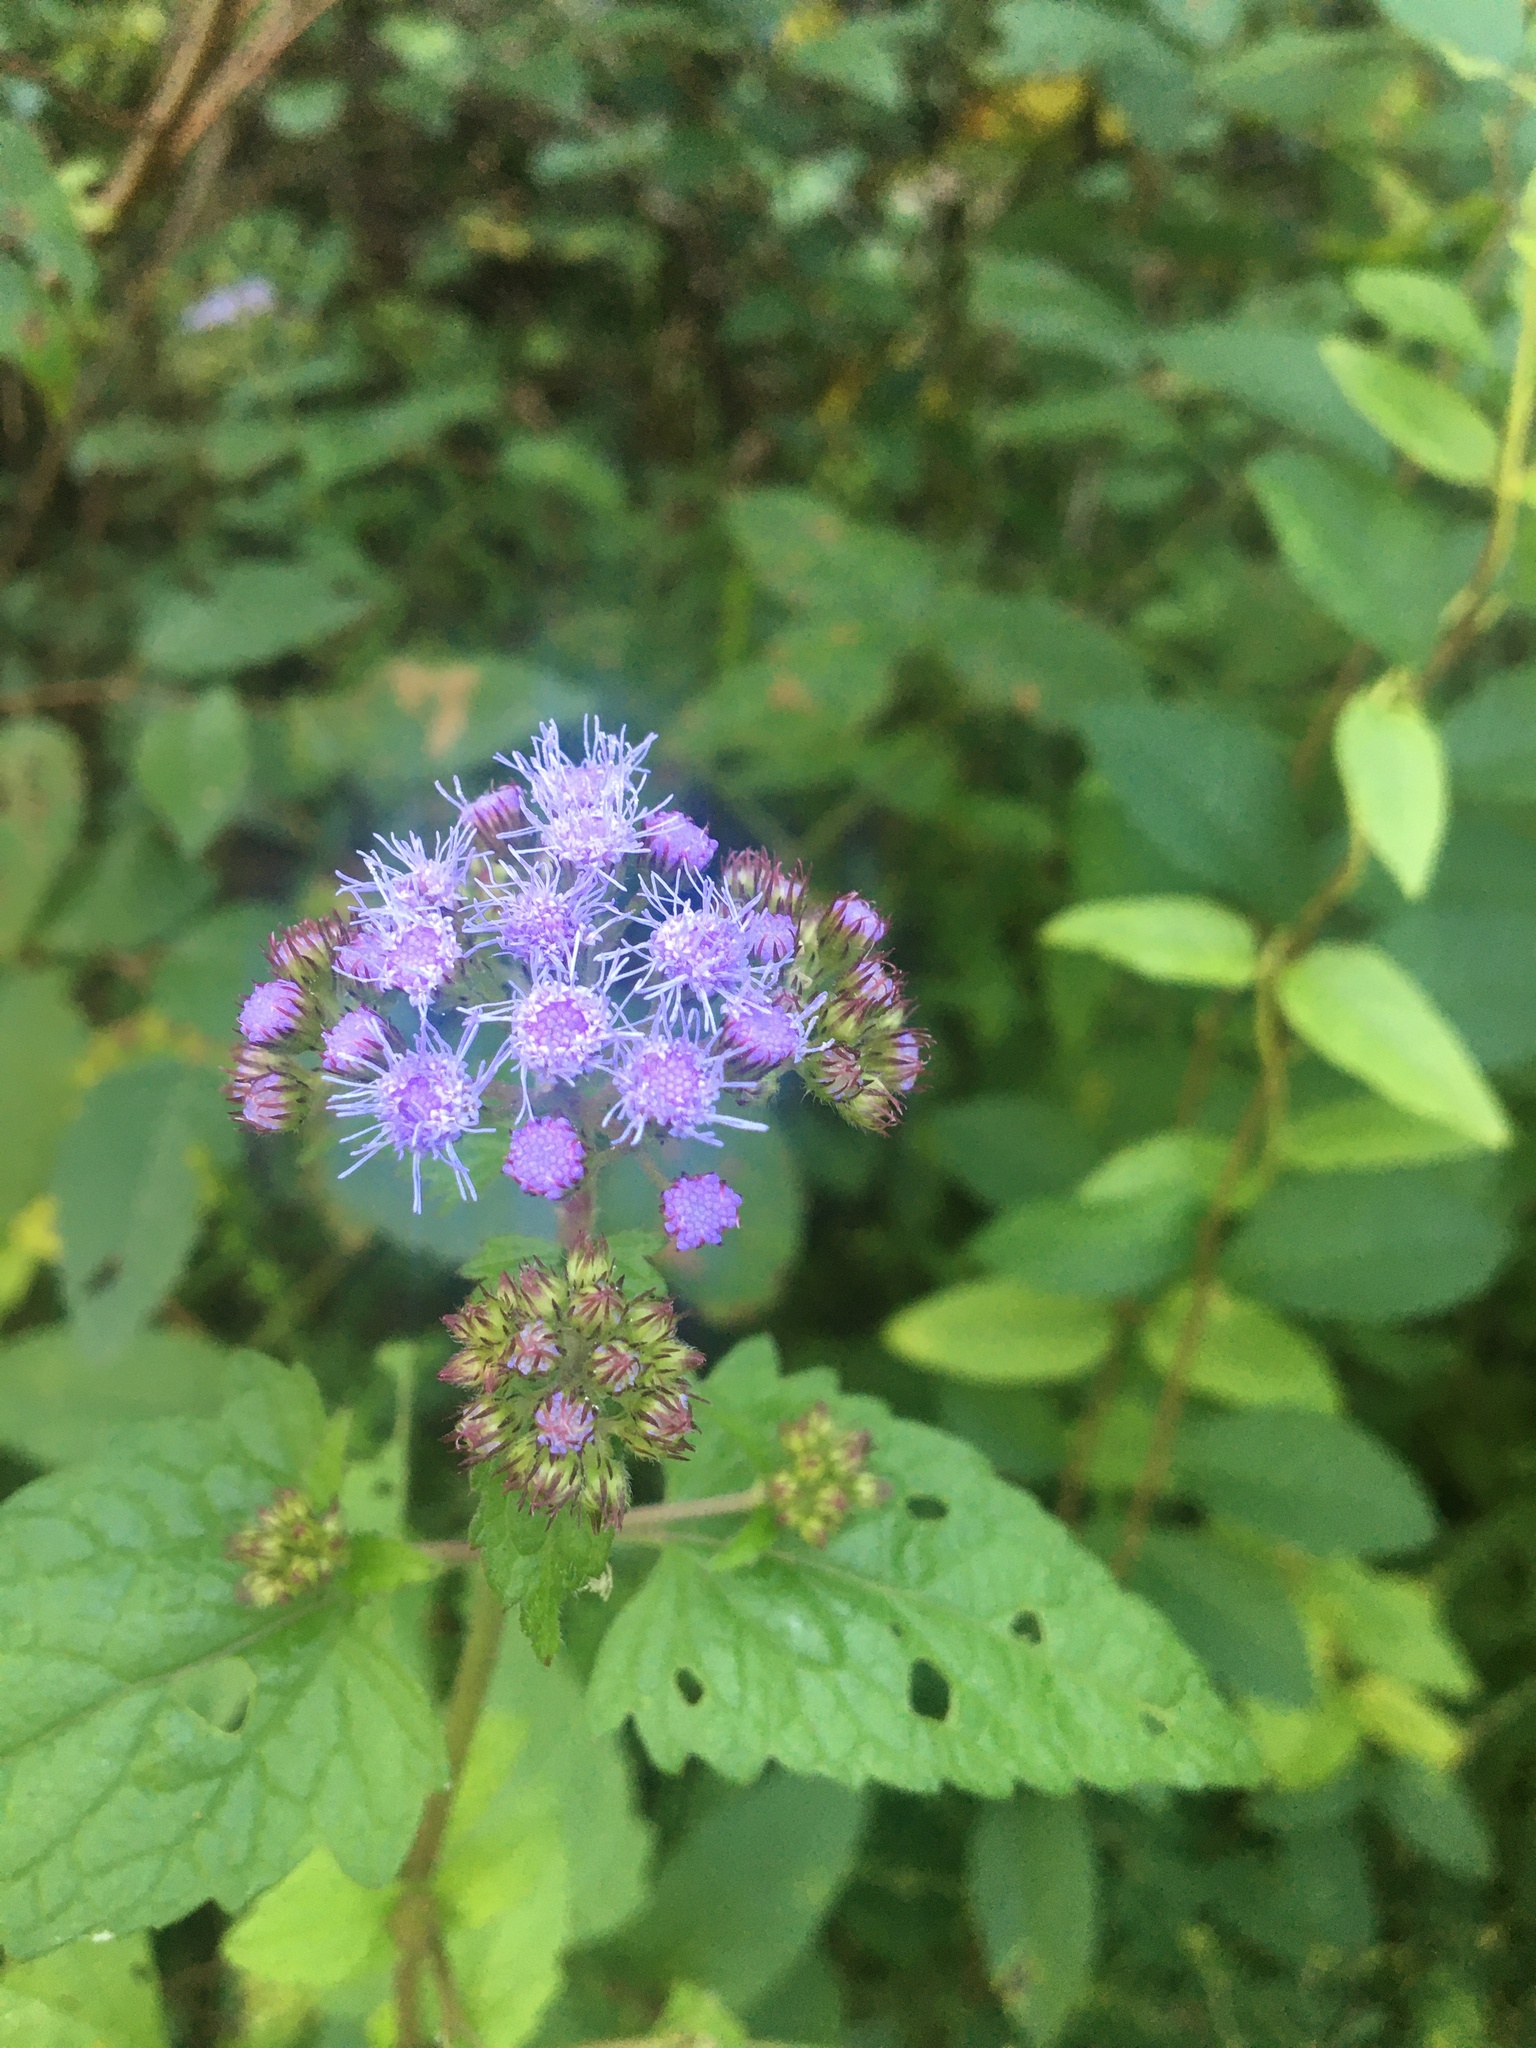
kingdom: Plantae
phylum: Tracheophyta
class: Magnoliopsida
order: Asterales
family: Asteraceae
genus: Conoclinium
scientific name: Conoclinium coelestinum
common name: Blue mistflower
